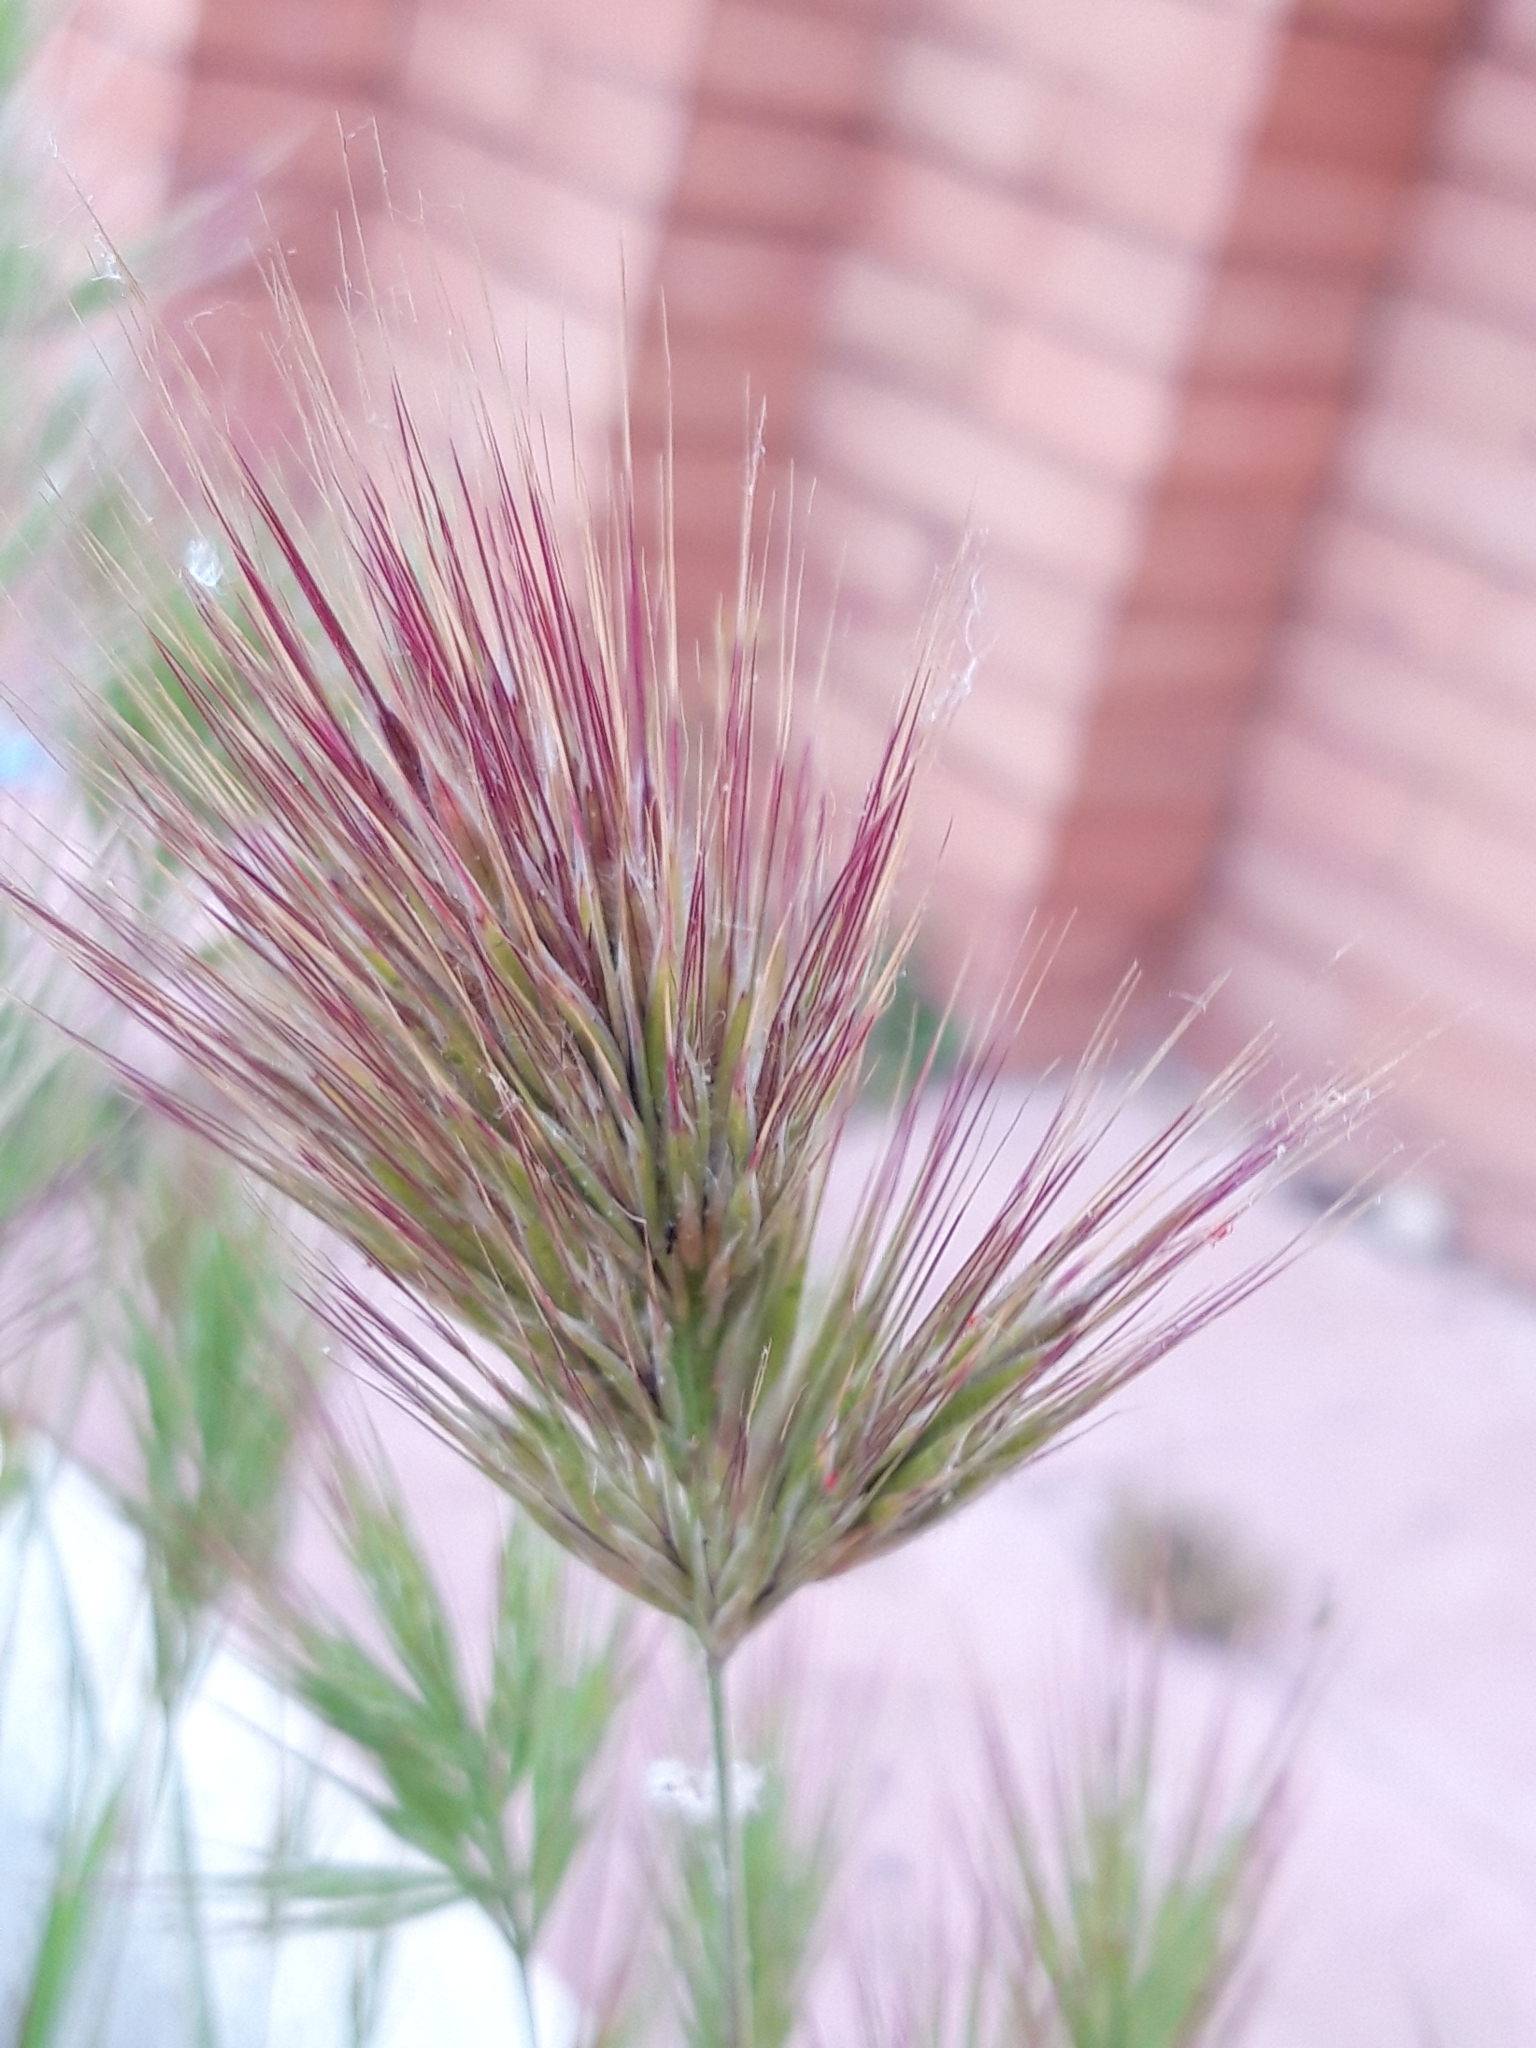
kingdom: Plantae
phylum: Tracheophyta
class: Liliopsida
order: Poales
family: Poaceae
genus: Bromus
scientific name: Bromus rubens
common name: Red brome
